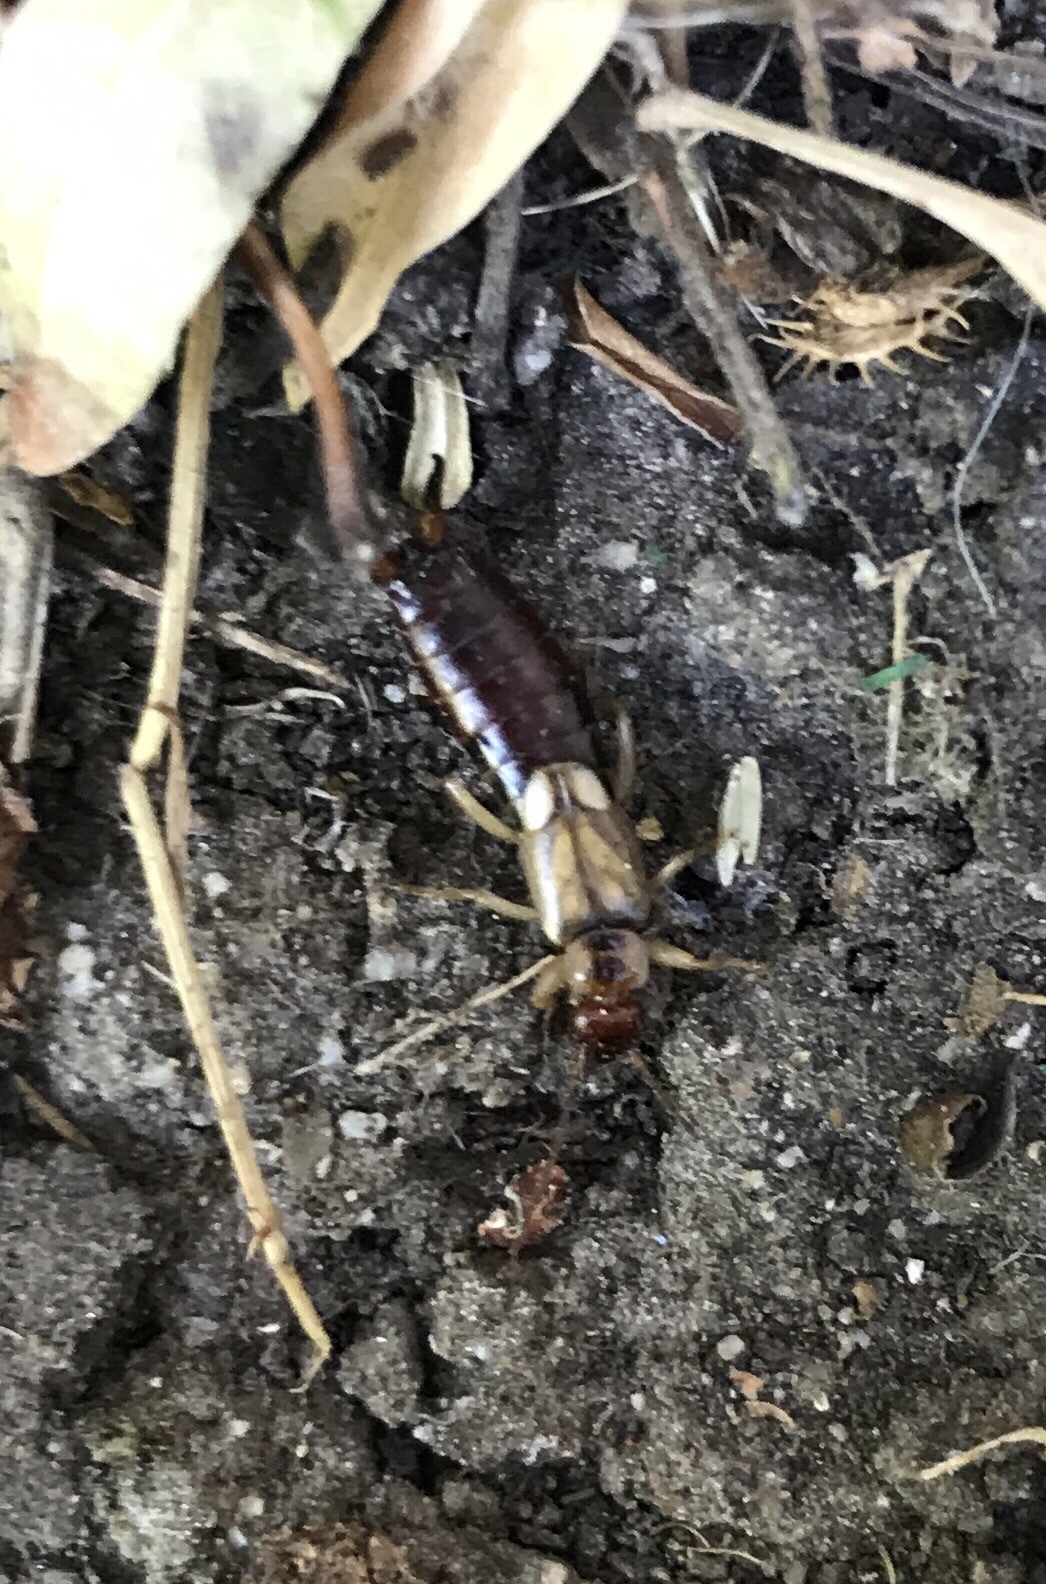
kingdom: Animalia
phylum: Arthropoda
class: Insecta
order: Dermaptera
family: Forficulidae
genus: Forficula
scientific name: Forficula
